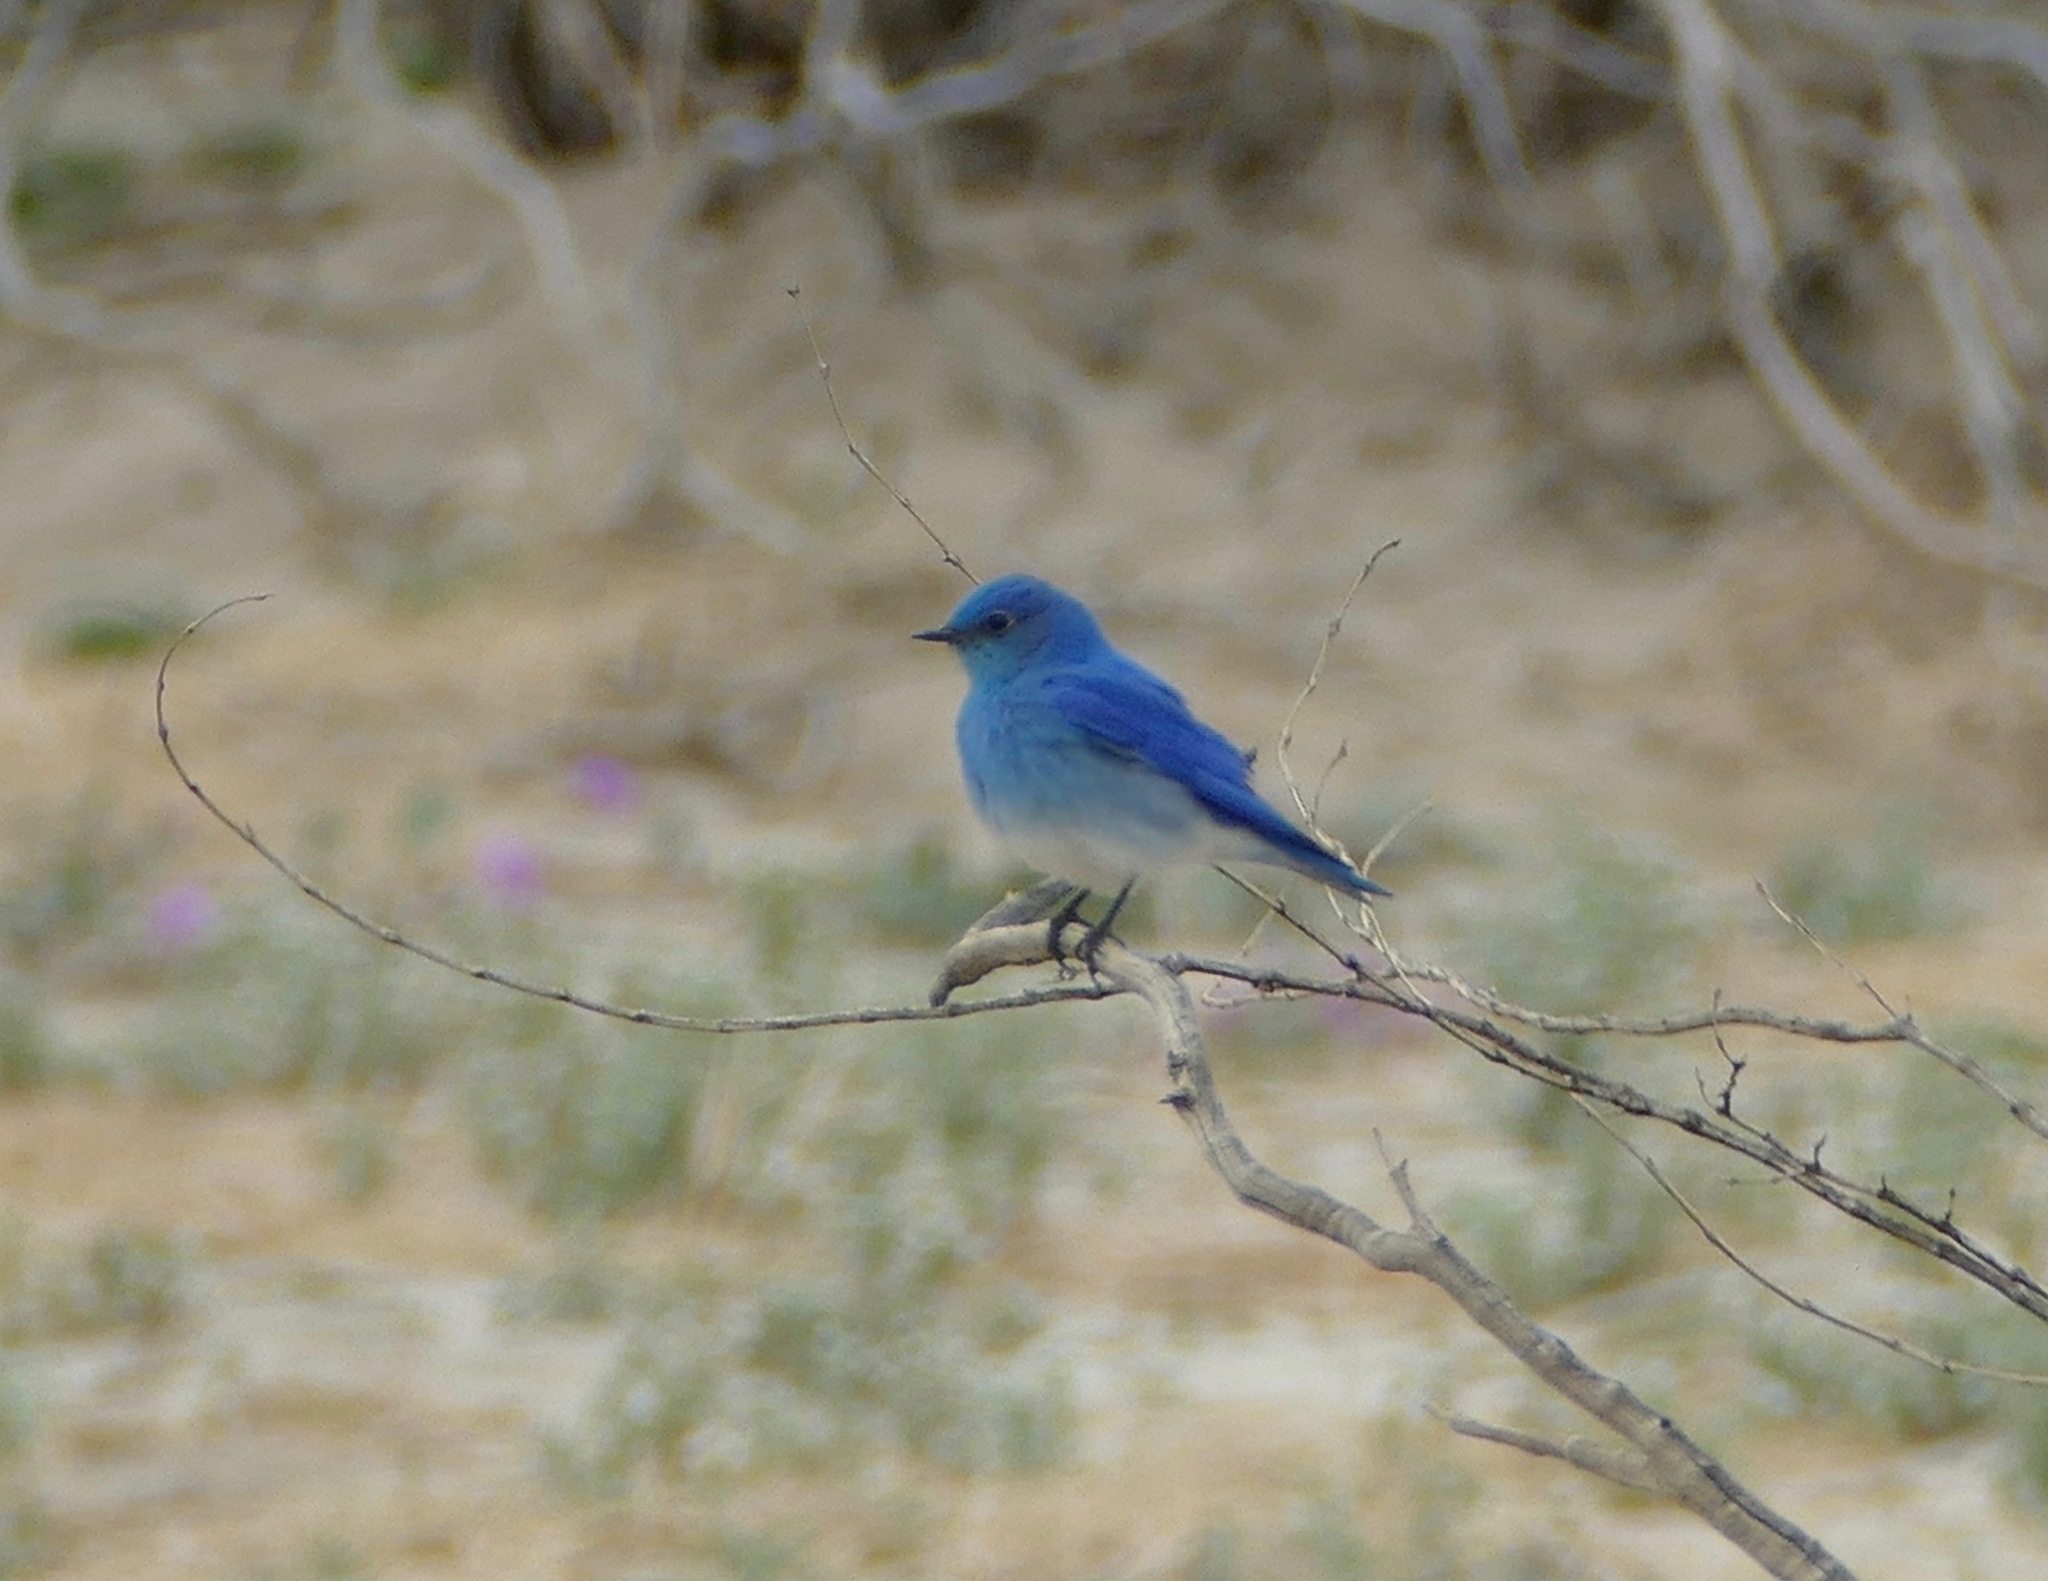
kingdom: Animalia
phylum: Chordata
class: Aves
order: Passeriformes
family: Turdidae
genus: Sialia
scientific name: Sialia currucoides
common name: Mountain bluebird
